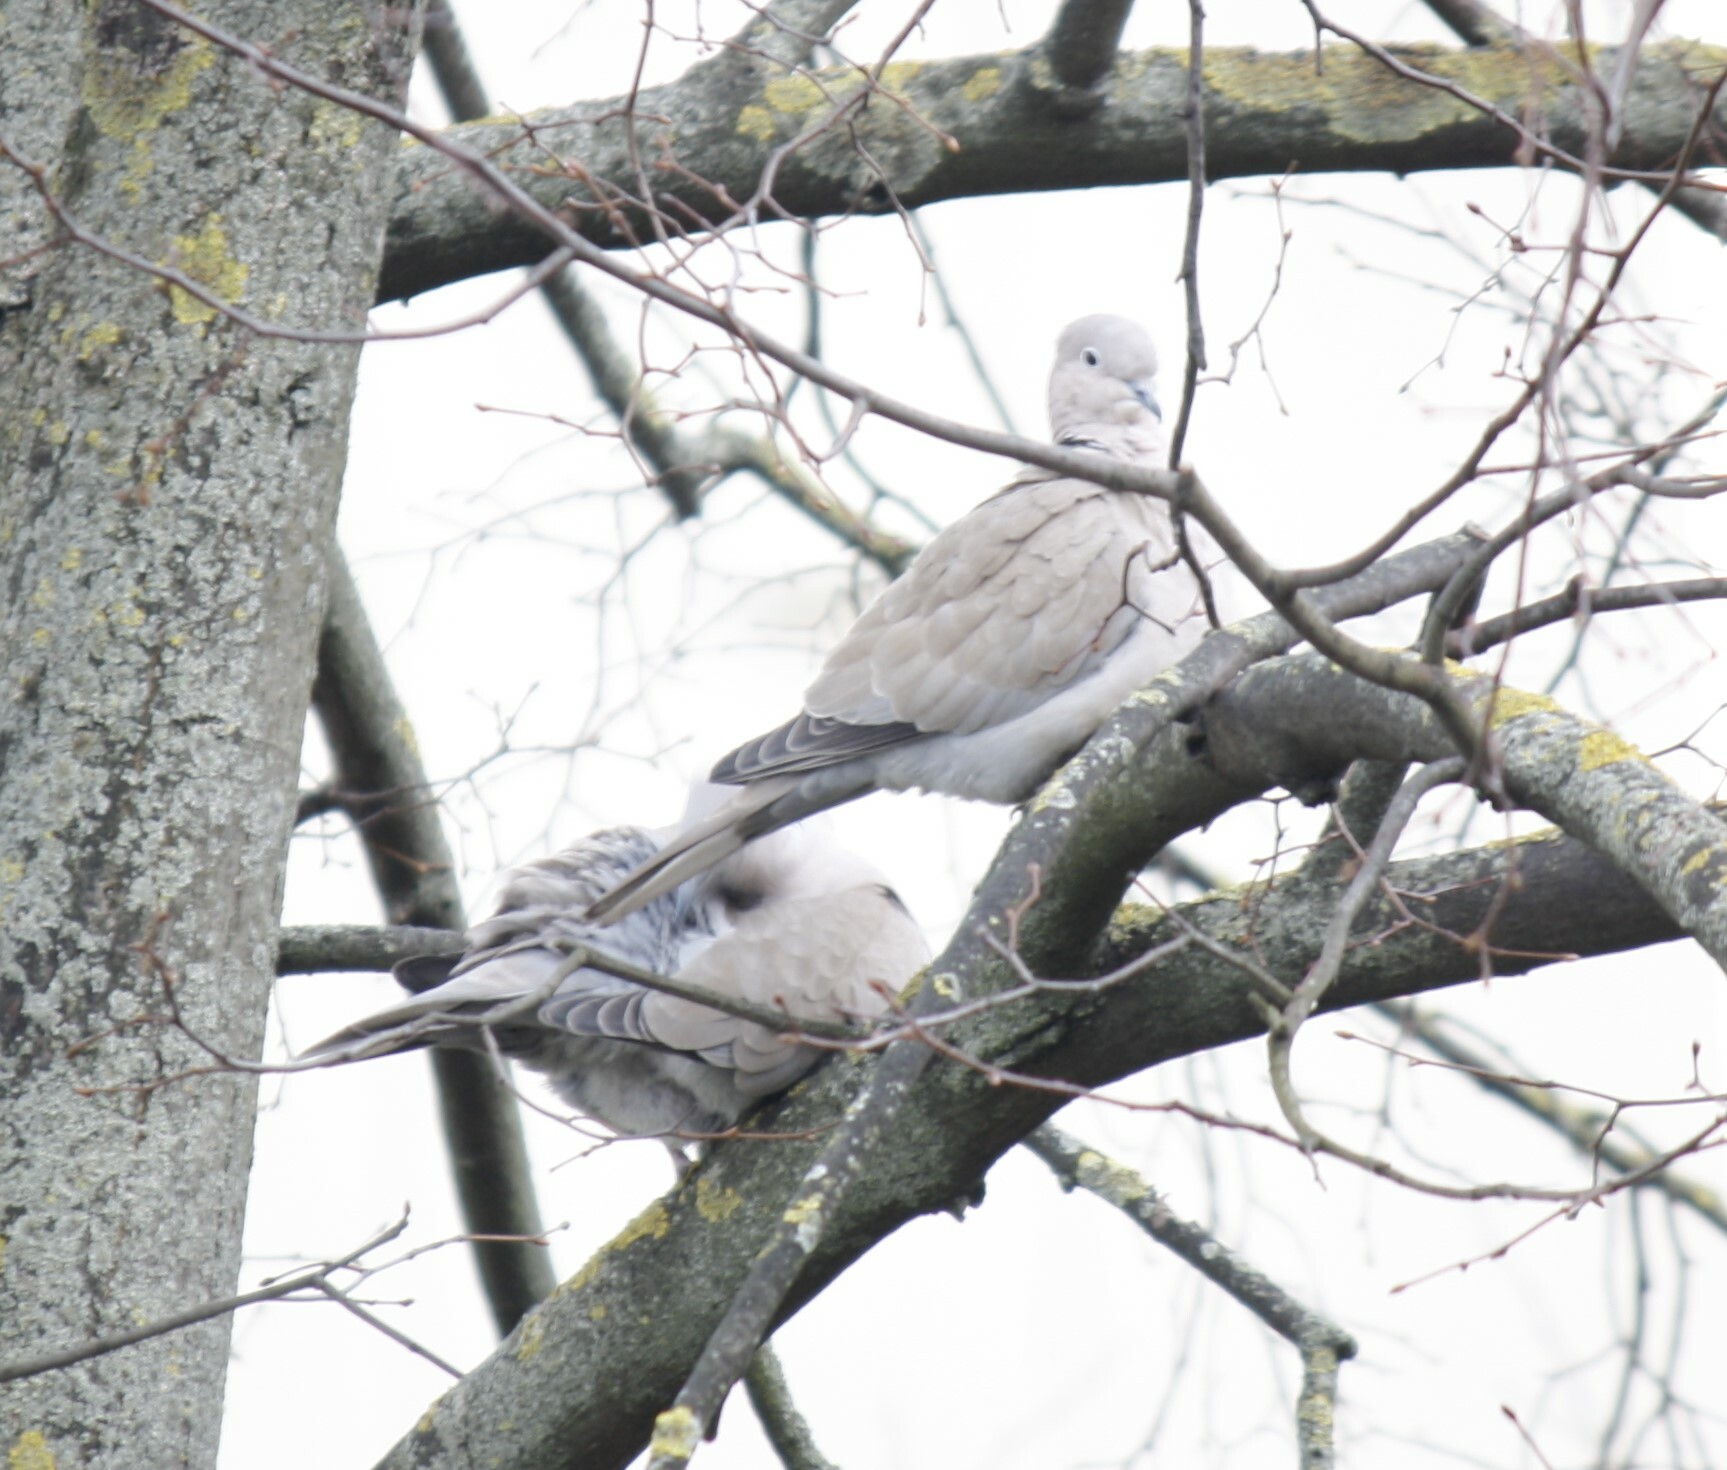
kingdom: Animalia
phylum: Chordata
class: Aves
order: Columbiformes
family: Columbidae
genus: Streptopelia
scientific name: Streptopelia decaocto
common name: Eurasian collared dove
